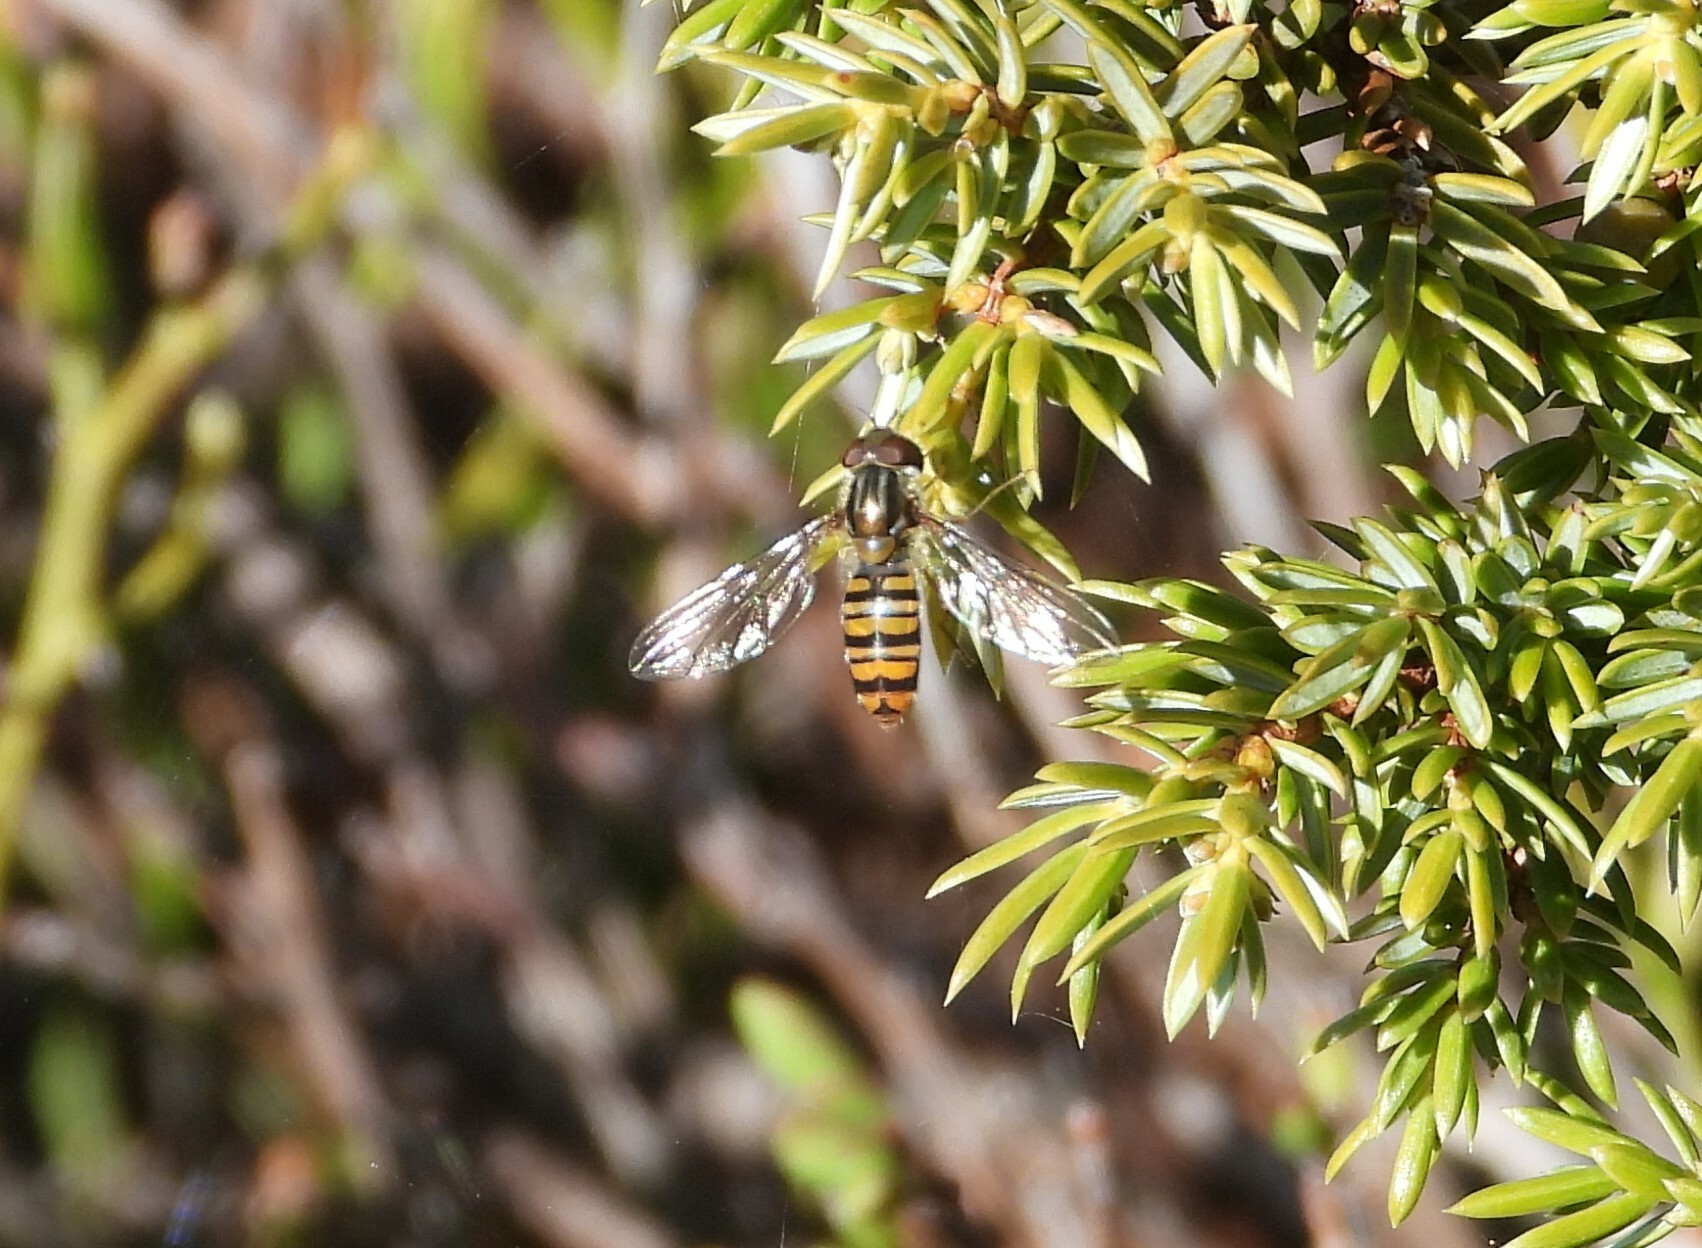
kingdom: Animalia
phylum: Arthropoda
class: Insecta
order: Diptera
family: Syrphidae
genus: Episyrphus
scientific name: Episyrphus balteatus
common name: Marmalade hoverfly
